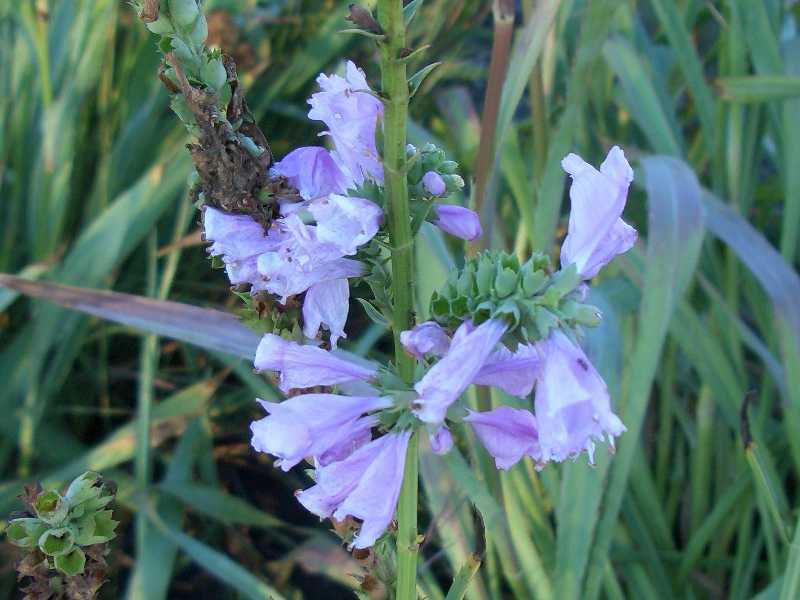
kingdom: Plantae
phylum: Tracheophyta
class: Magnoliopsida
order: Lamiales
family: Lamiaceae
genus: Physostegia
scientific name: Physostegia virginiana
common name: Obedient-plant
